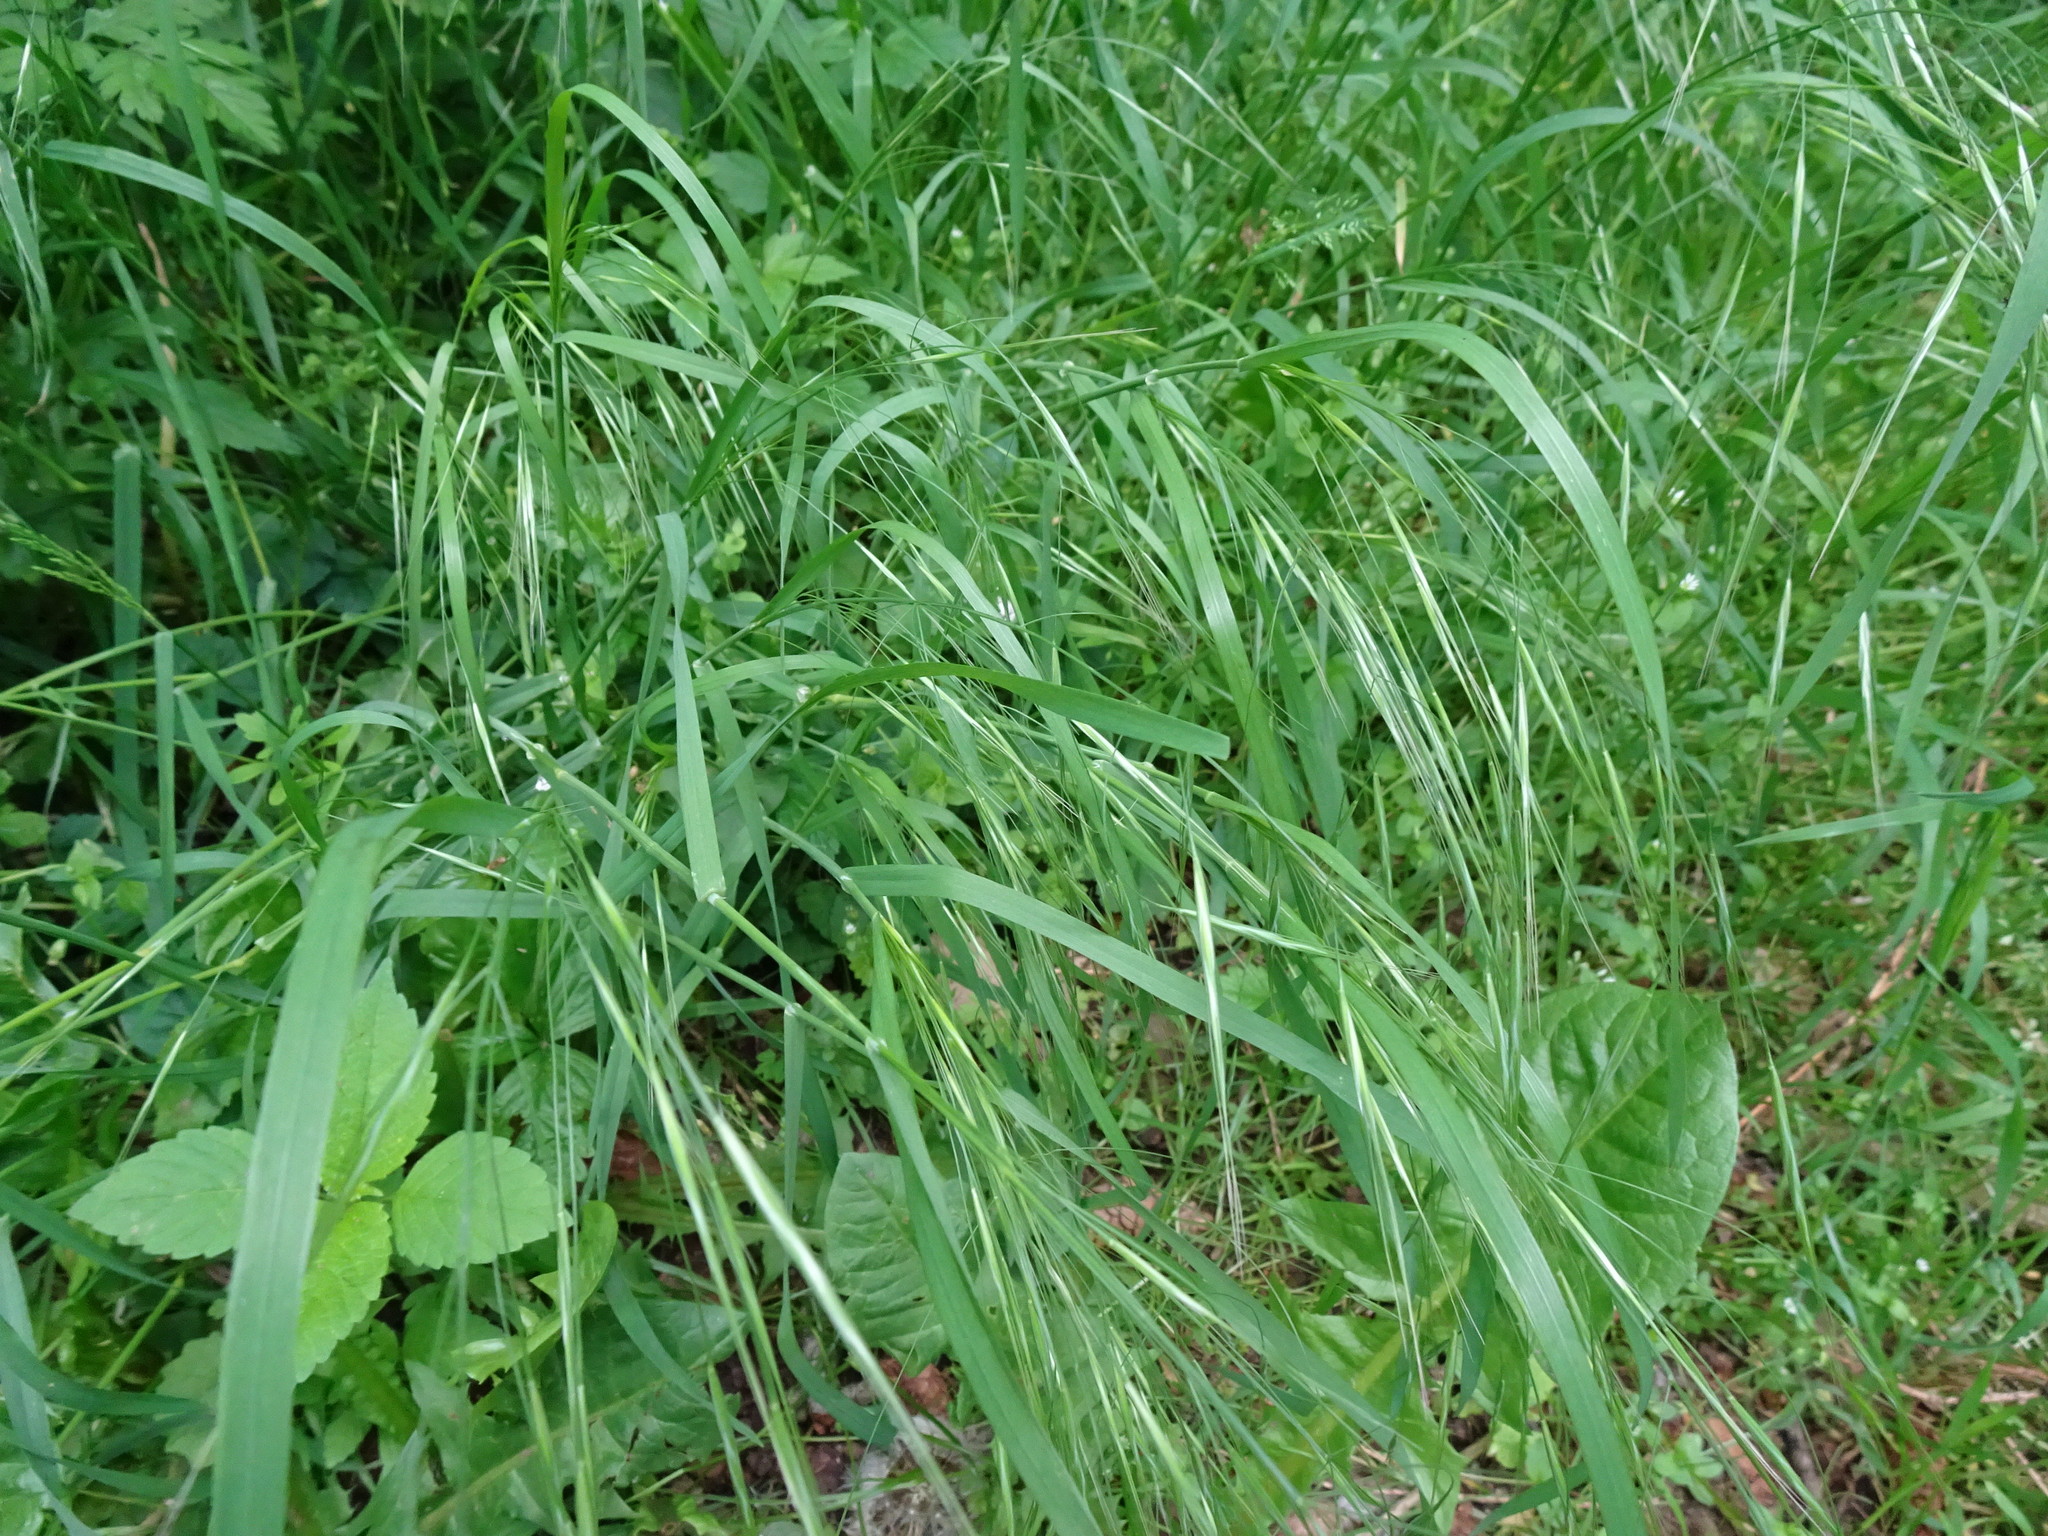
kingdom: Plantae
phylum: Tracheophyta
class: Liliopsida
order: Poales
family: Poaceae
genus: Bromus
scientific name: Bromus sterilis
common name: Poverty brome
